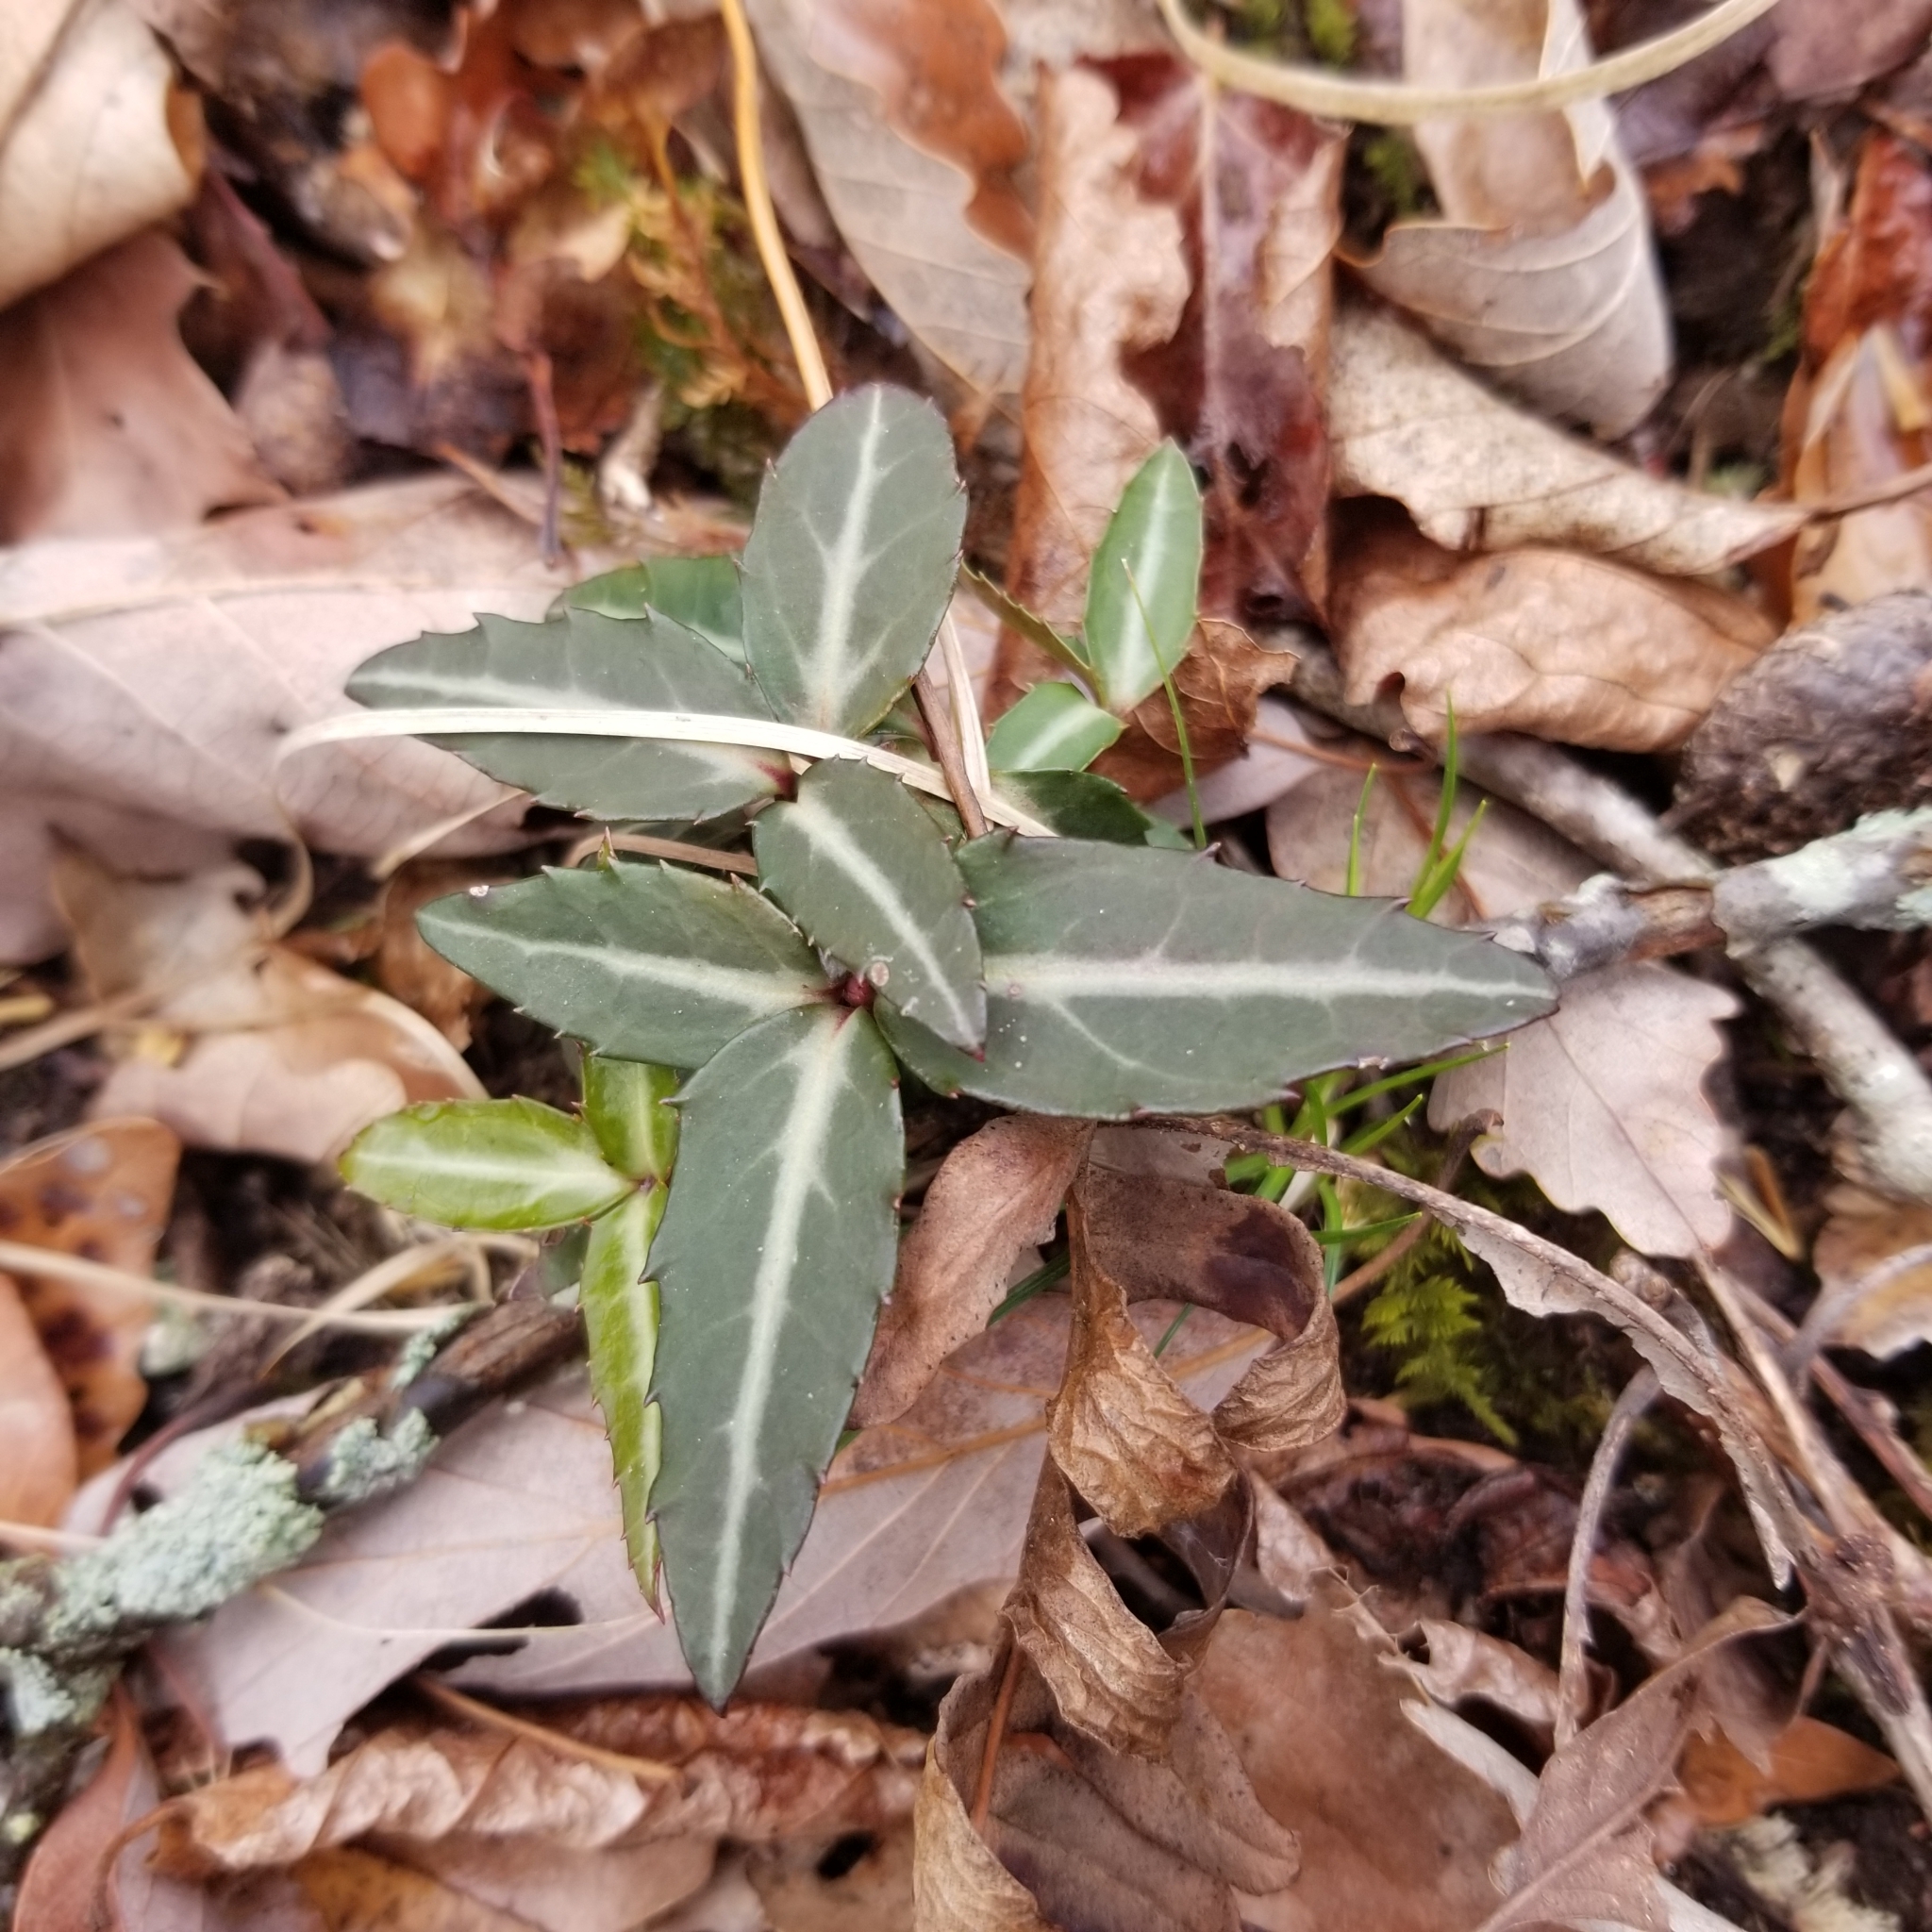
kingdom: Plantae
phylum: Tracheophyta
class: Magnoliopsida
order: Ericales
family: Ericaceae
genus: Chimaphila
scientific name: Chimaphila maculata
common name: Spotted pipsissewa
